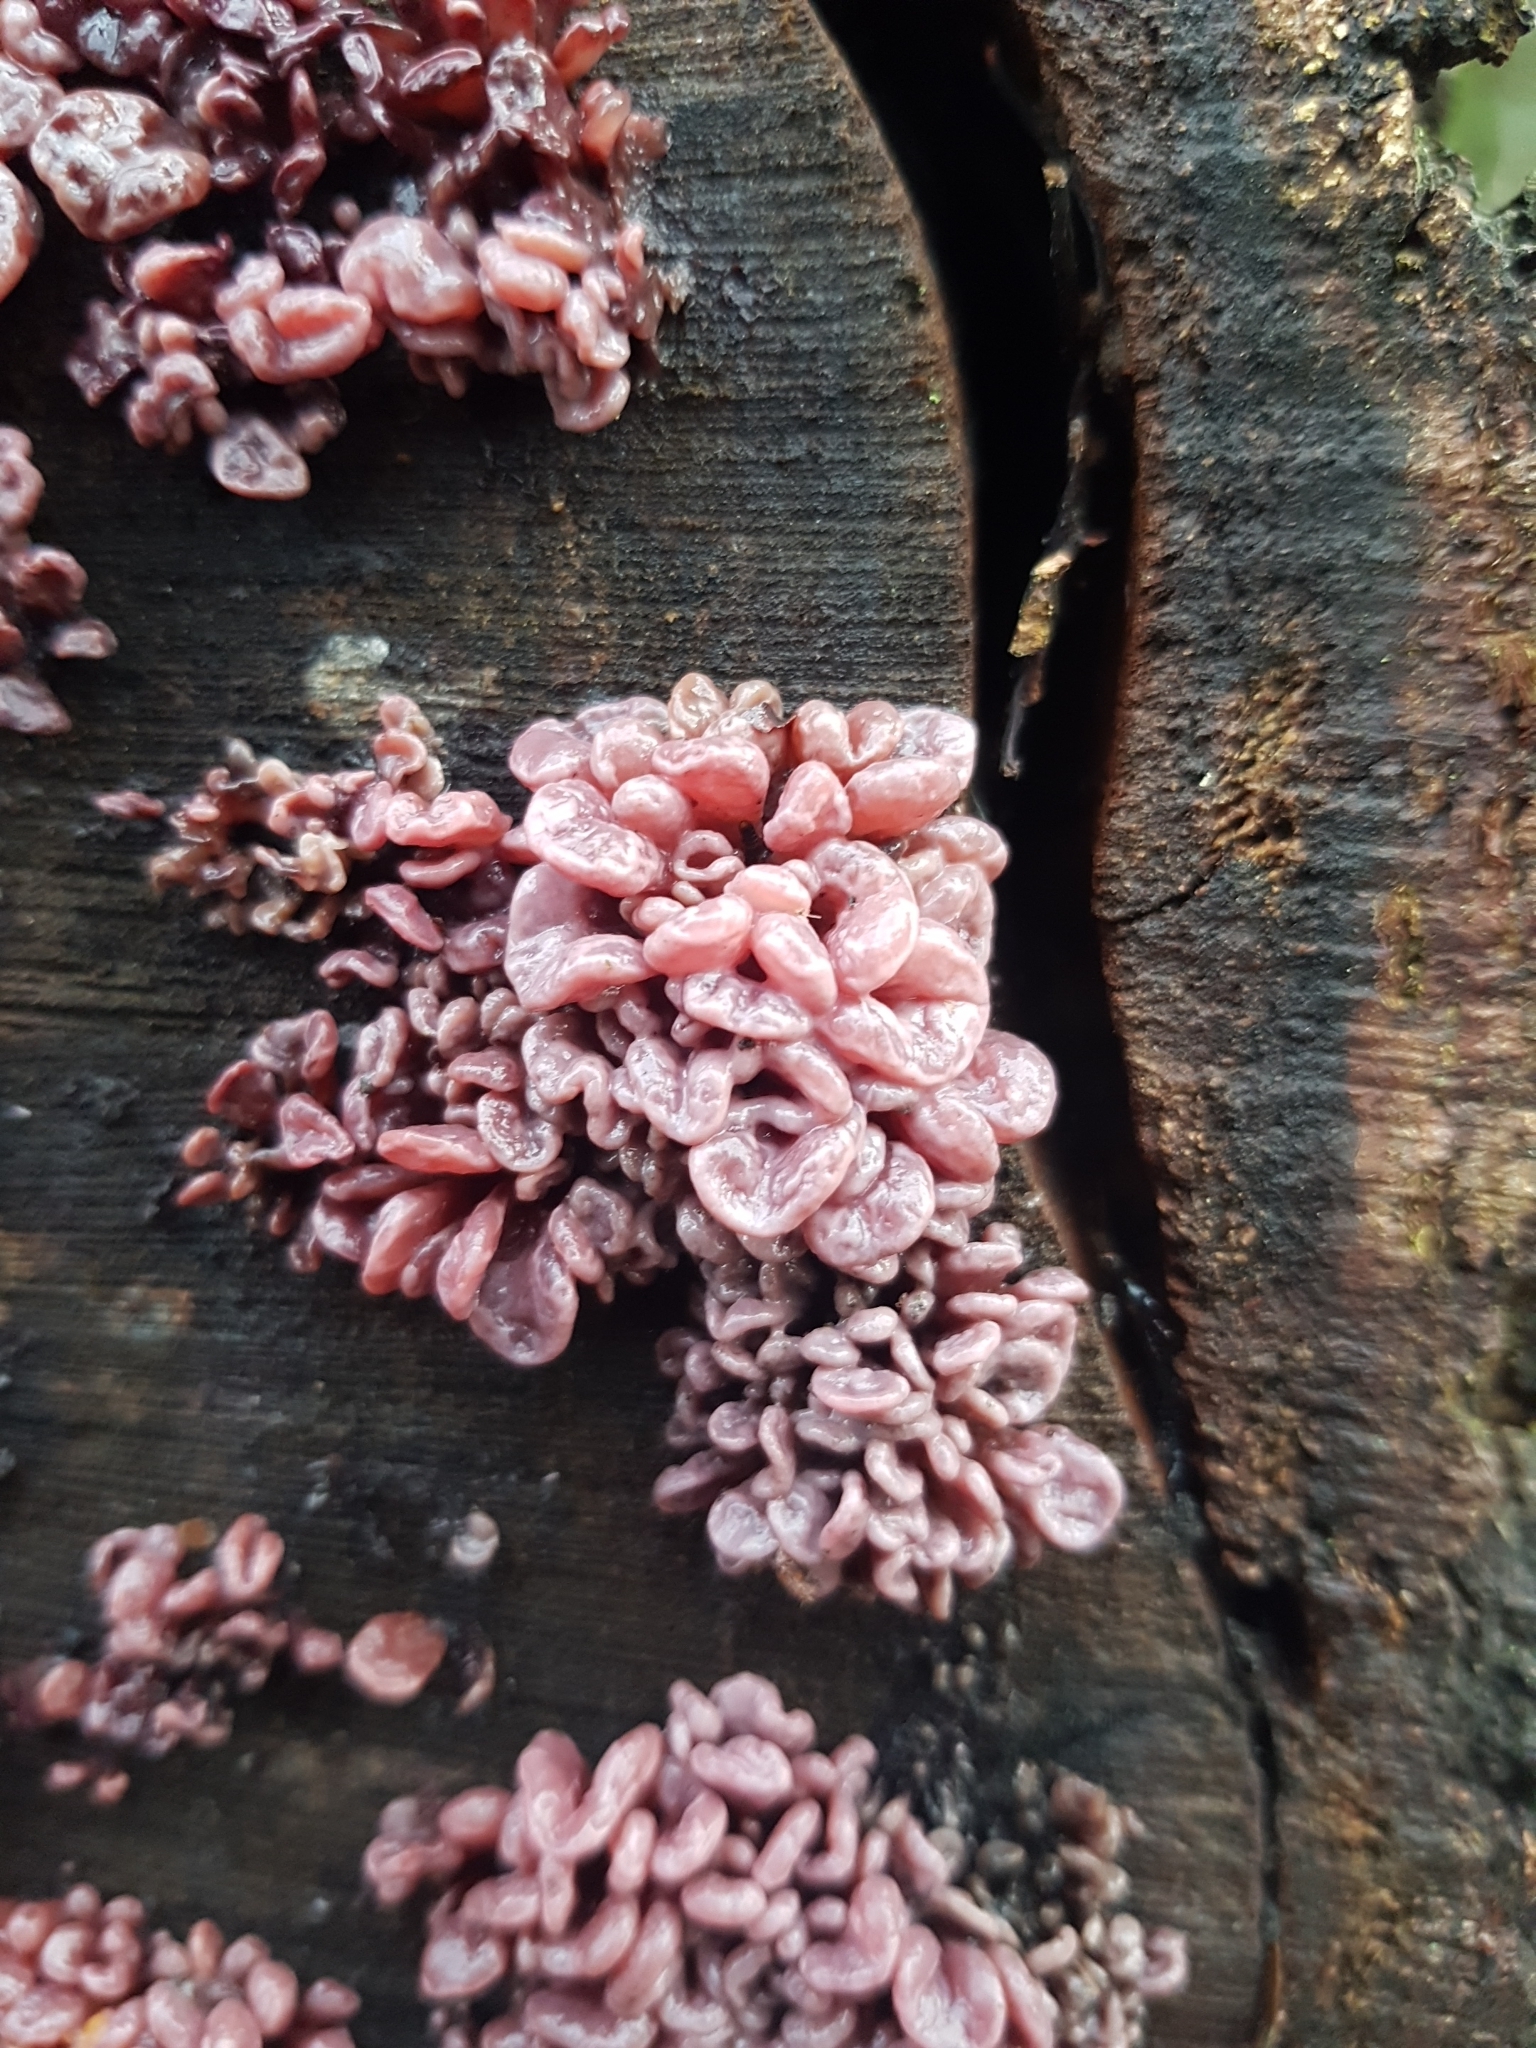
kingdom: Fungi
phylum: Ascomycota
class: Leotiomycetes
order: Helotiales
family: Gelatinodiscaceae
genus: Ascocoryne
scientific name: Ascocoryne sarcoides
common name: Purple jellydisc
